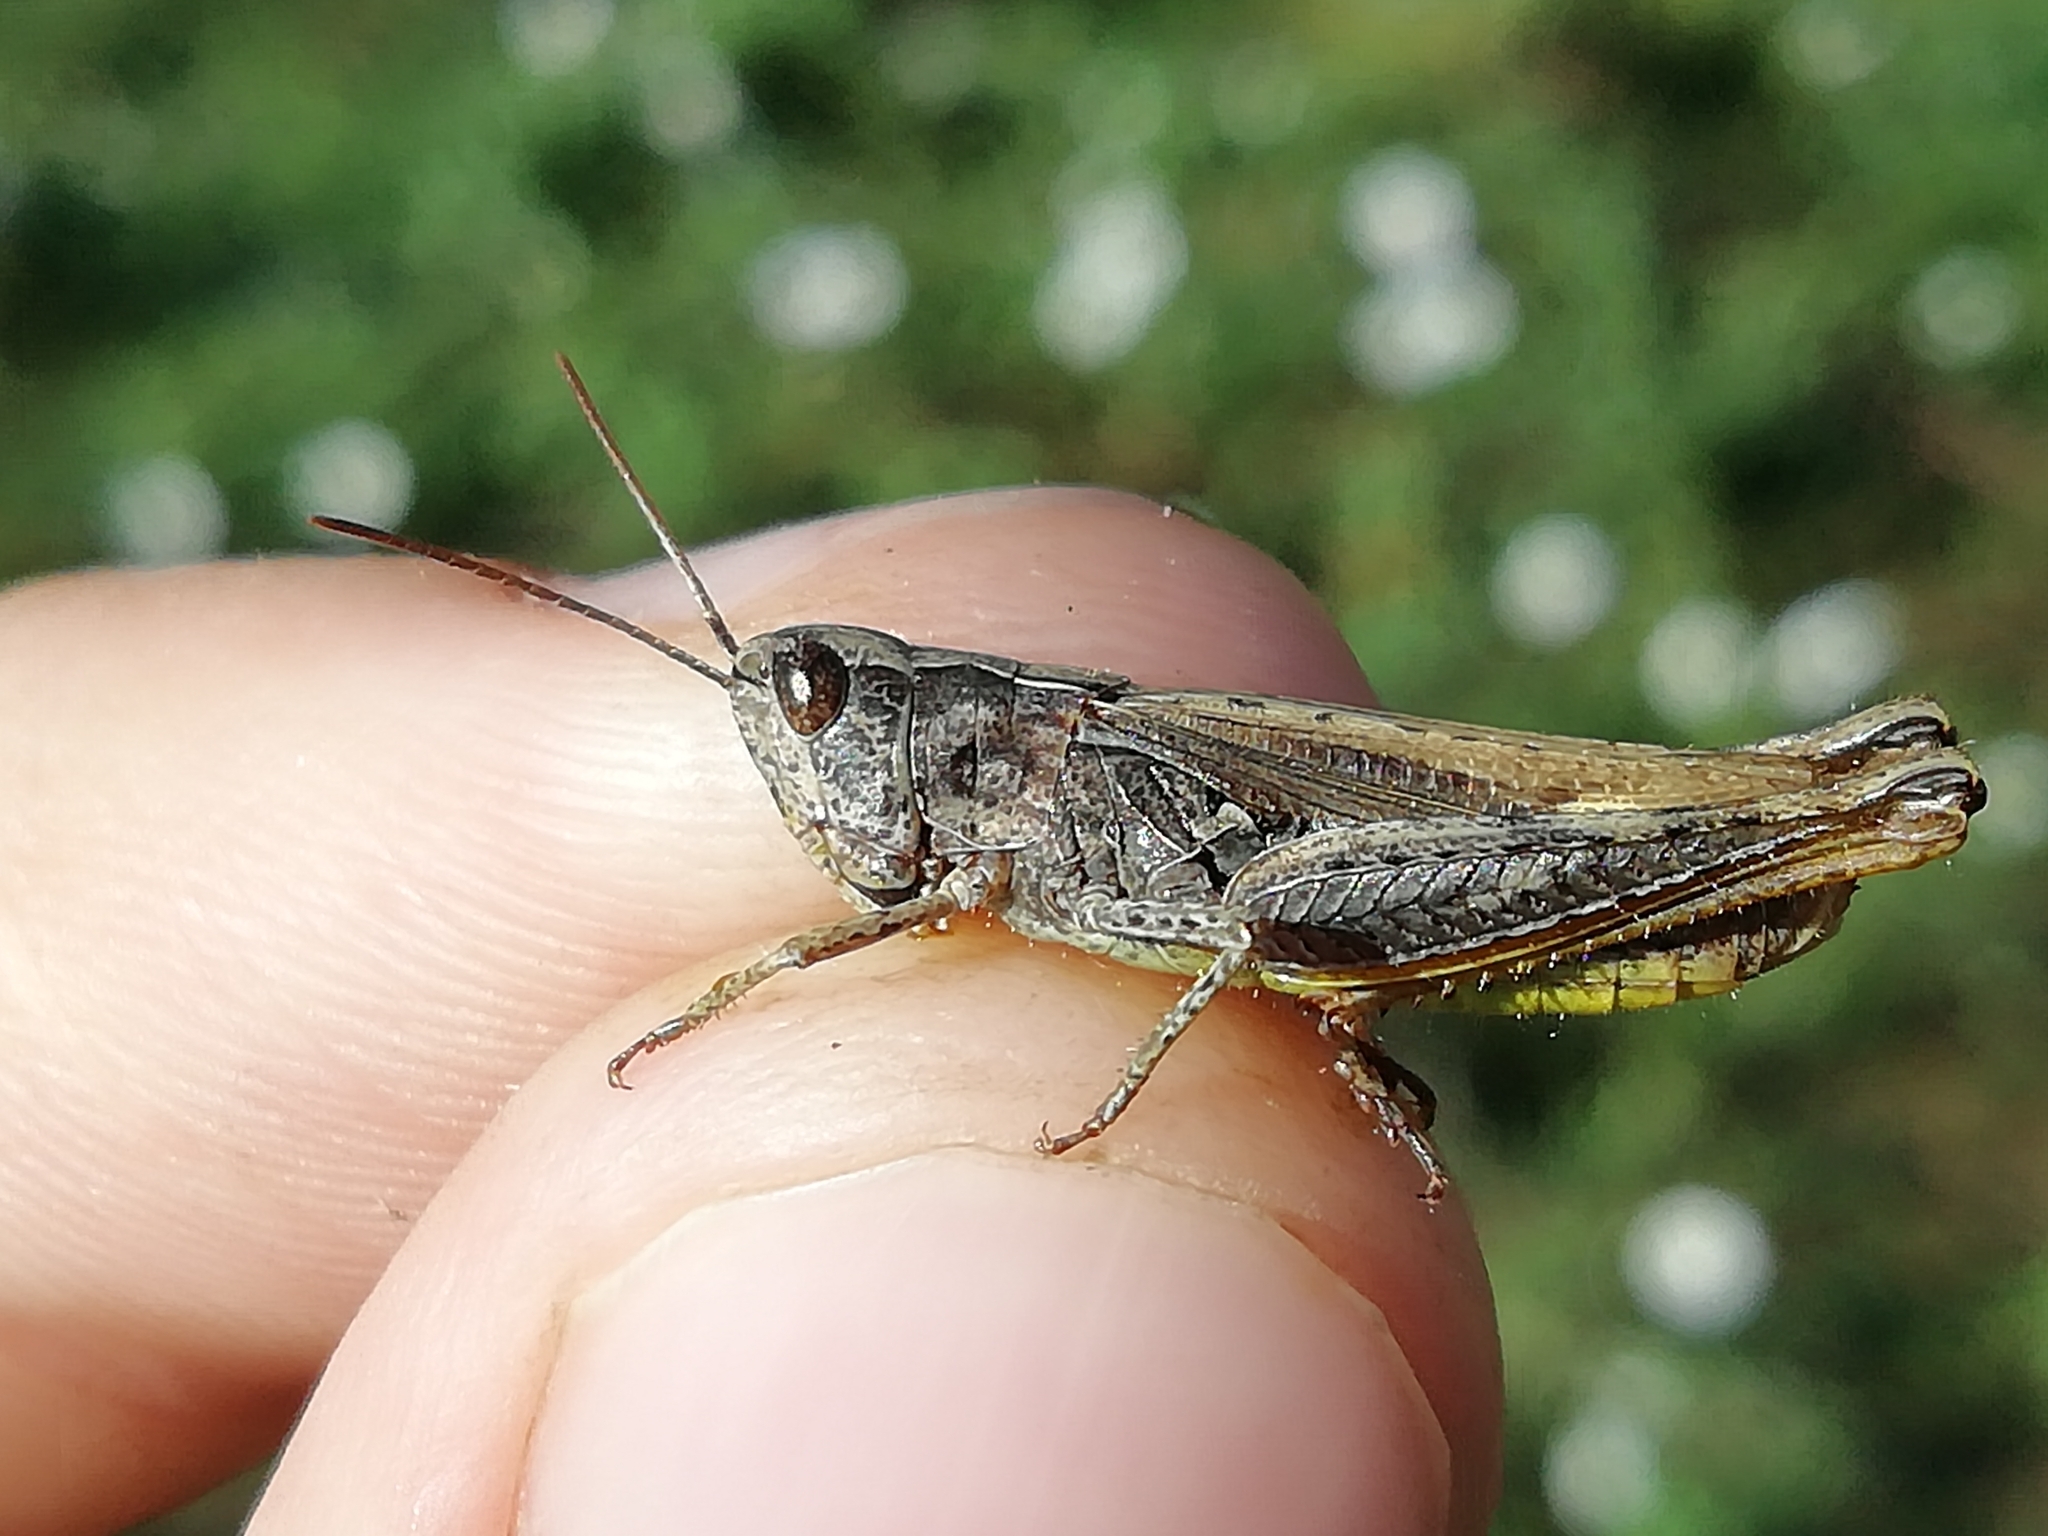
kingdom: Animalia
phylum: Arthropoda
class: Insecta
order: Orthoptera
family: Acrididae
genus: Chorthippus
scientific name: Chorthippus apricarius
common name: Upland field grasshopper
